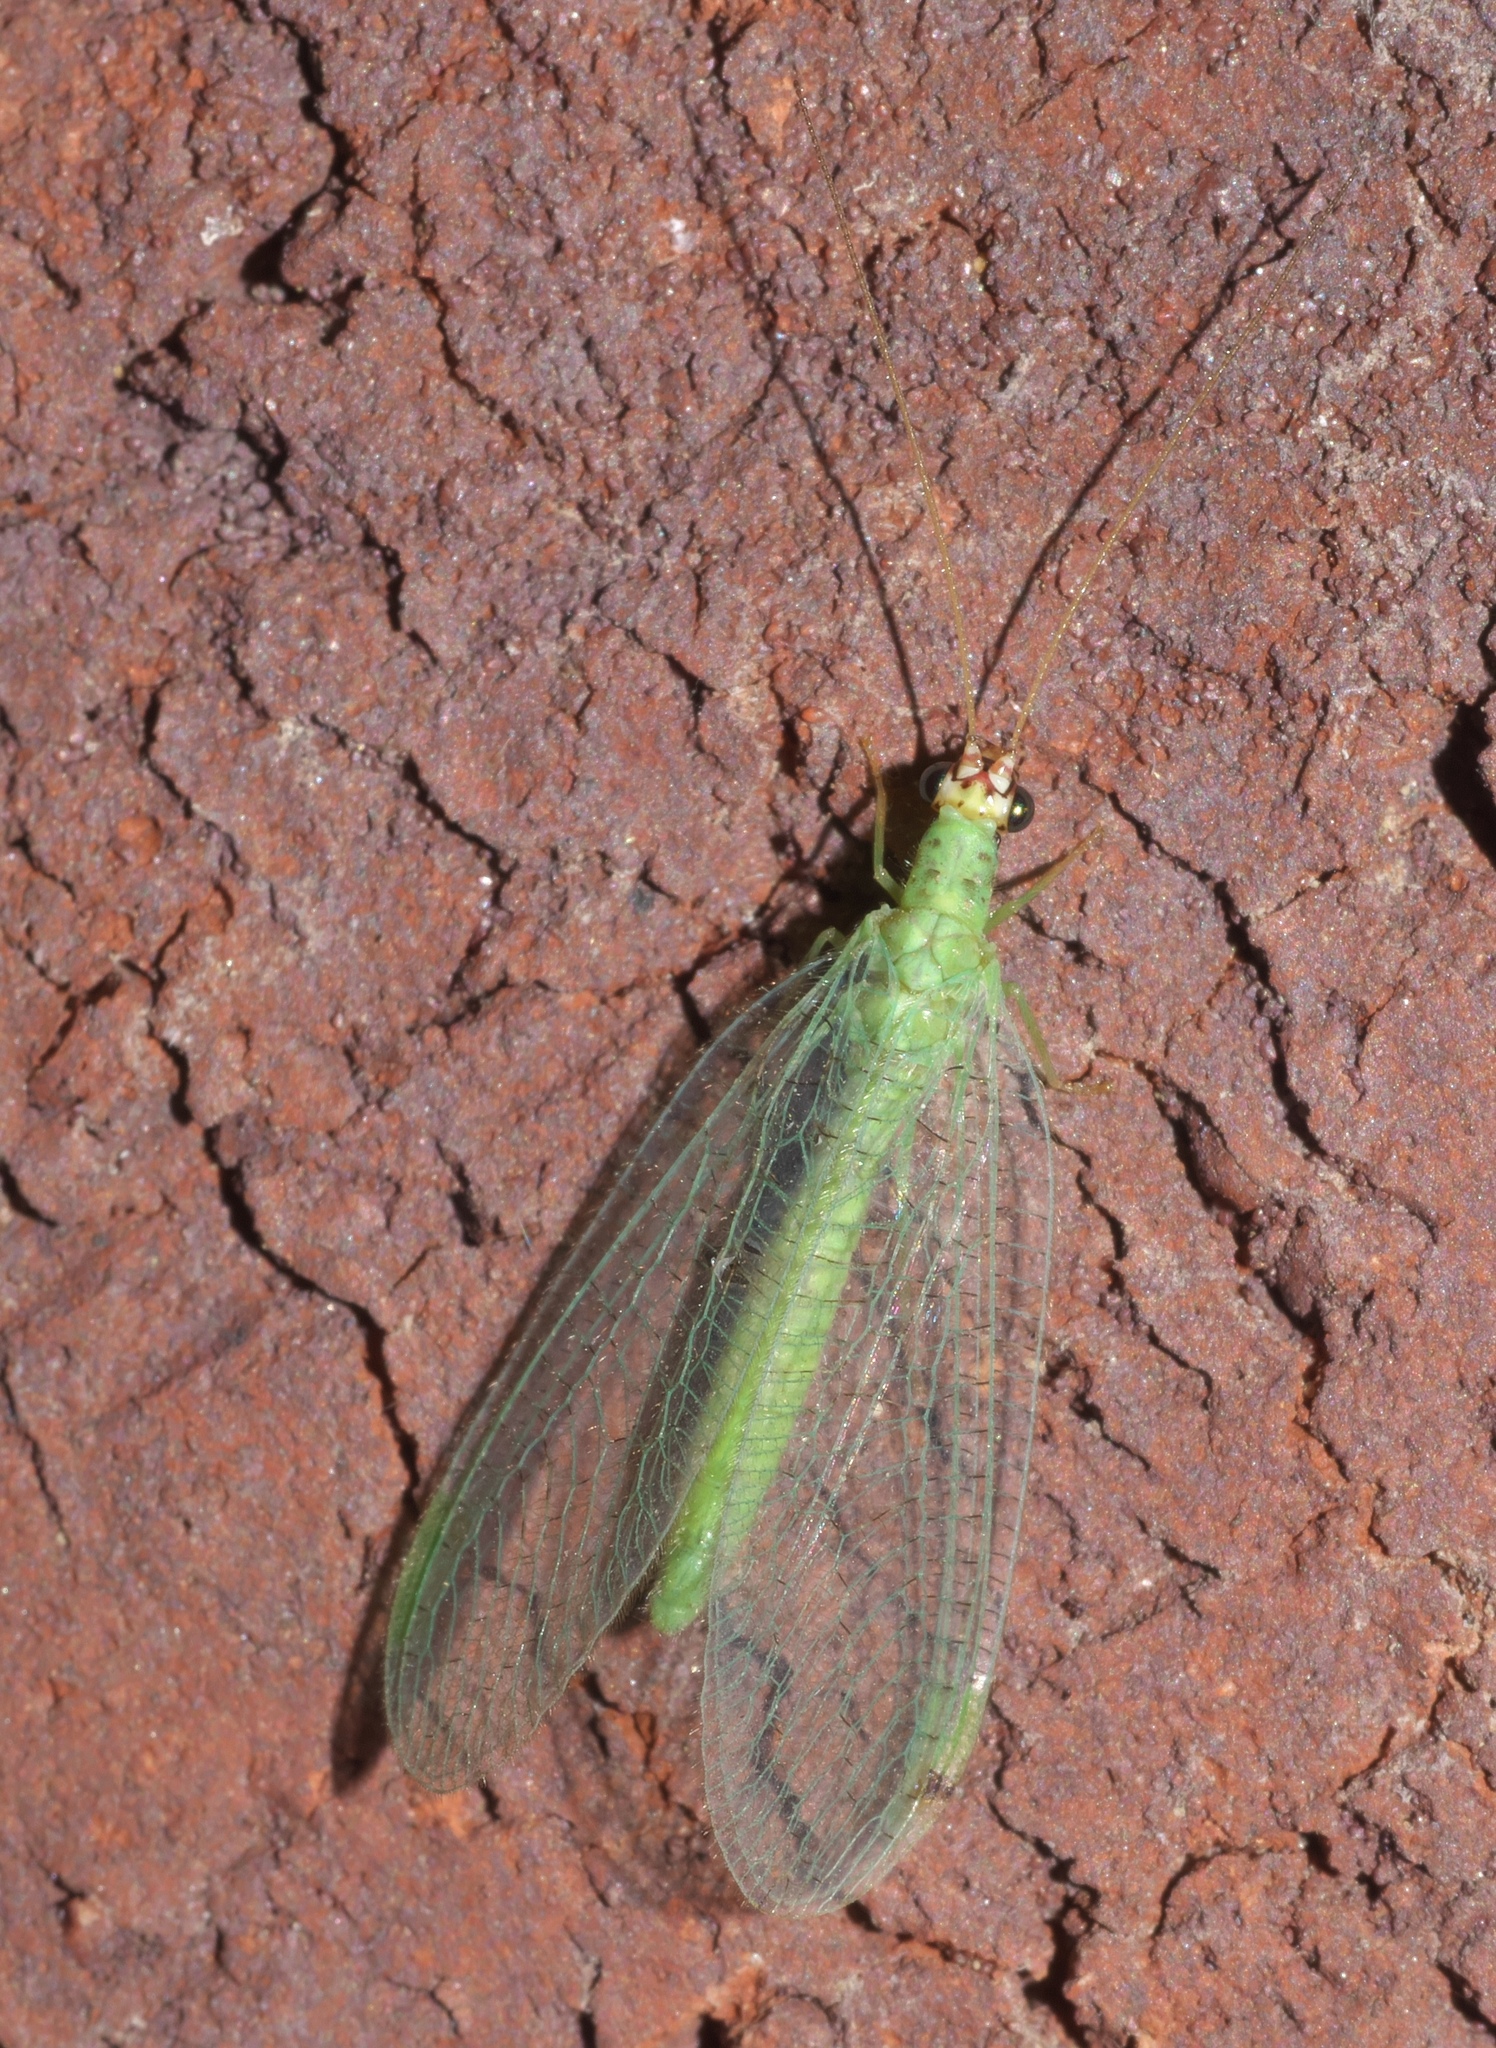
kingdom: Animalia
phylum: Arthropoda
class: Insecta
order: Neuroptera
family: Chrysopidae
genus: Chrysopa
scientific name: Chrysopa oculata
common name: Golden-eyed lacewing
